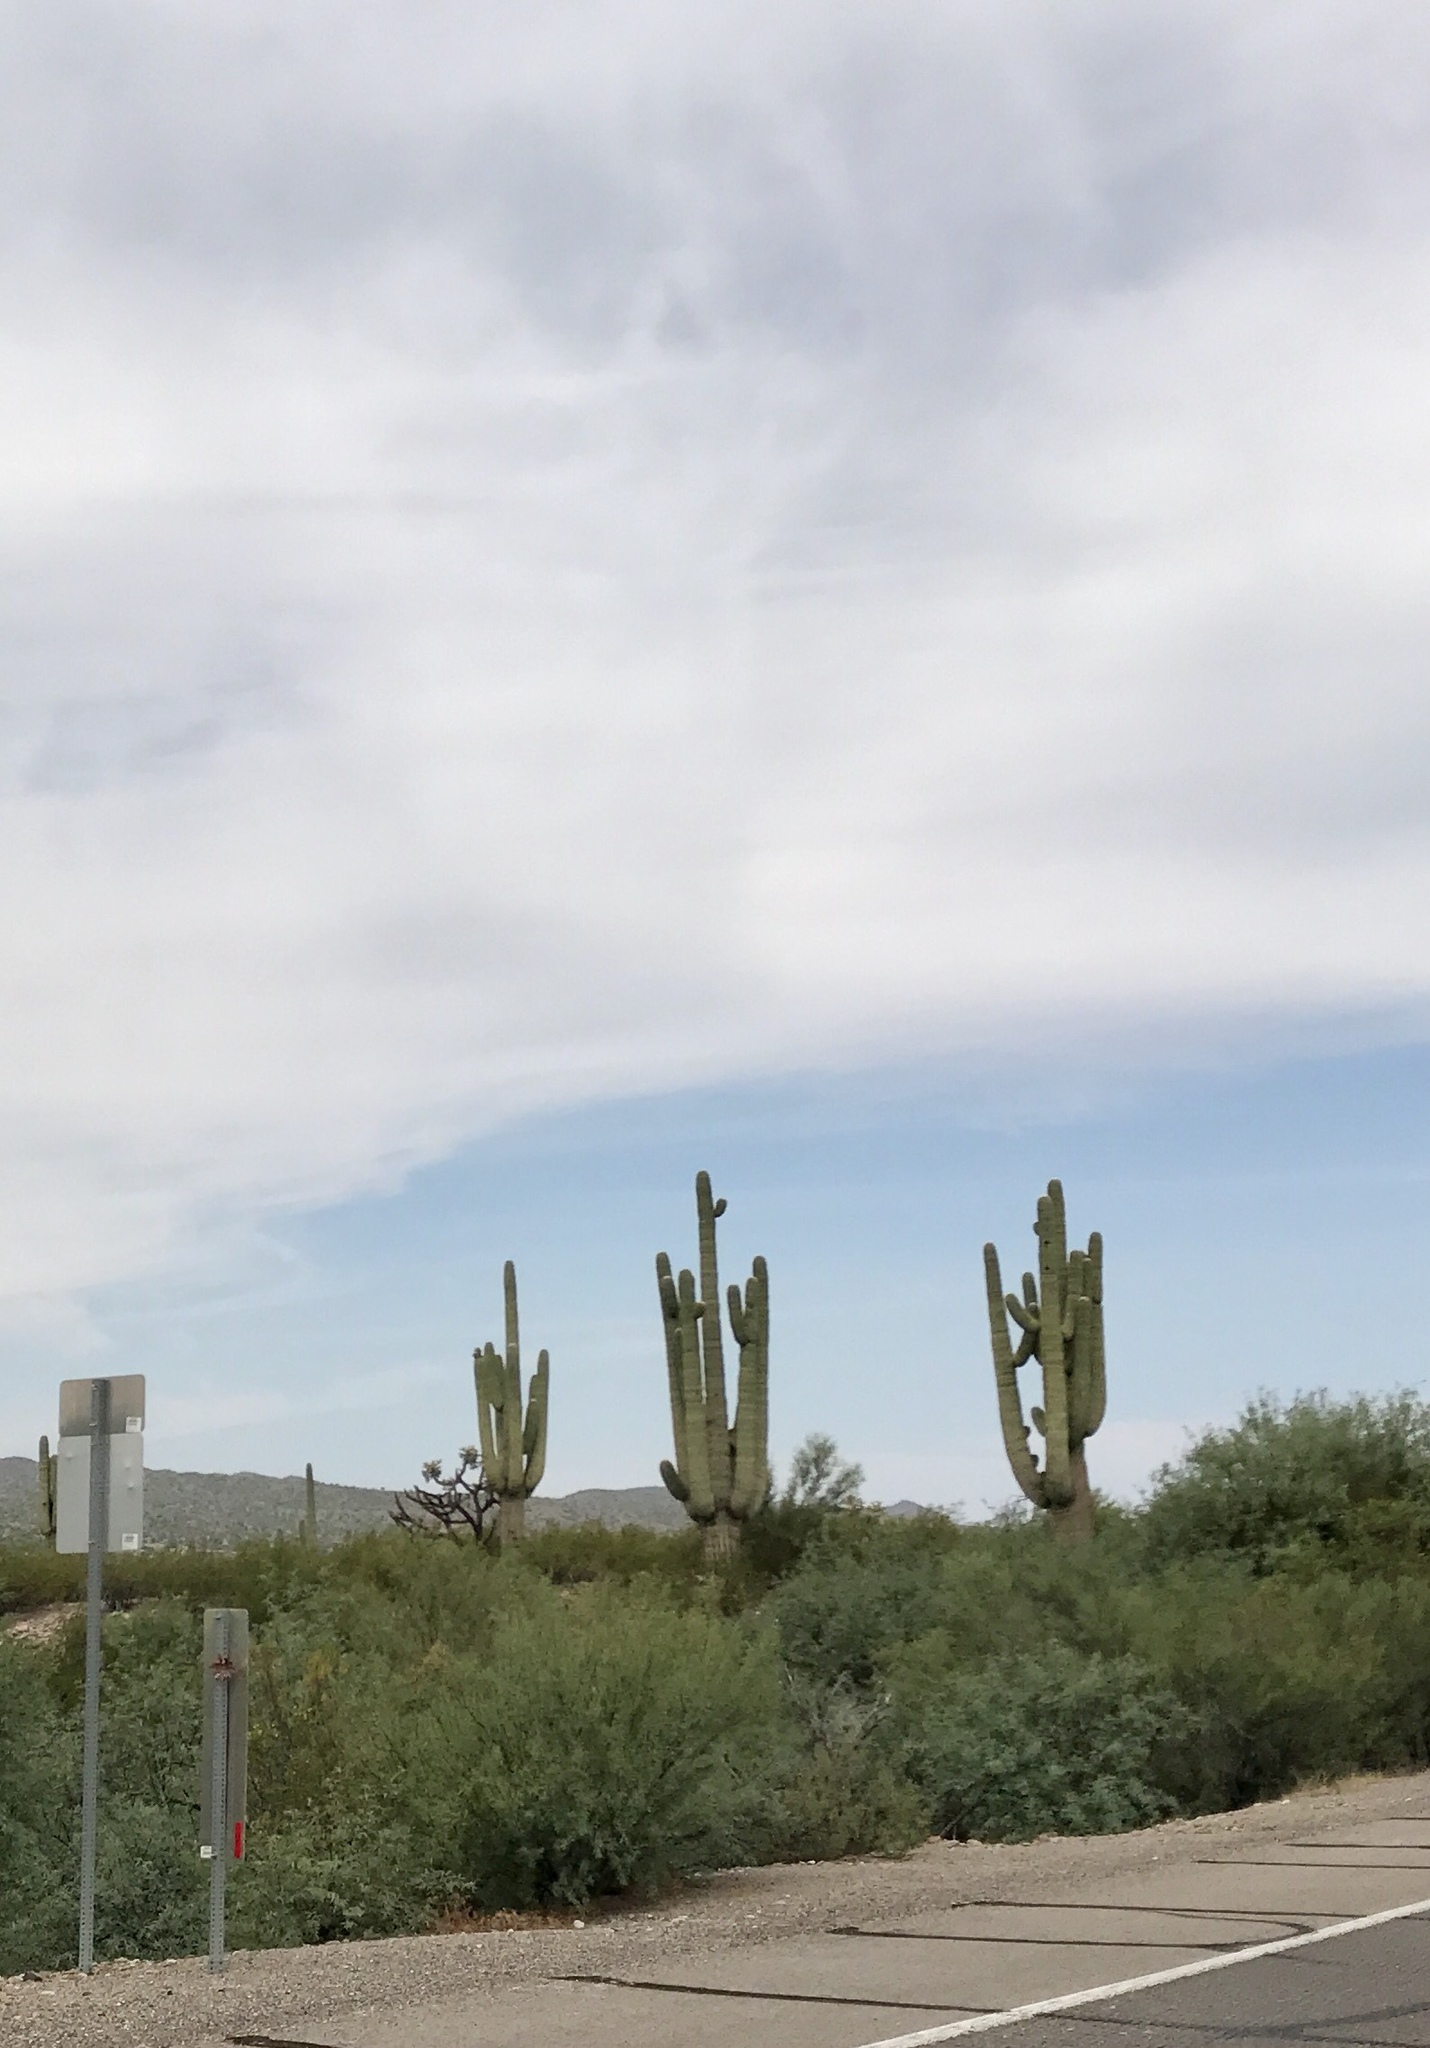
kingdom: Plantae
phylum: Tracheophyta
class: Magnoliopsida
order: Caryophyllales
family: Cactaceae
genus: Carnegiea
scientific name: Carnegiea gigantea
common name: Saguaro
